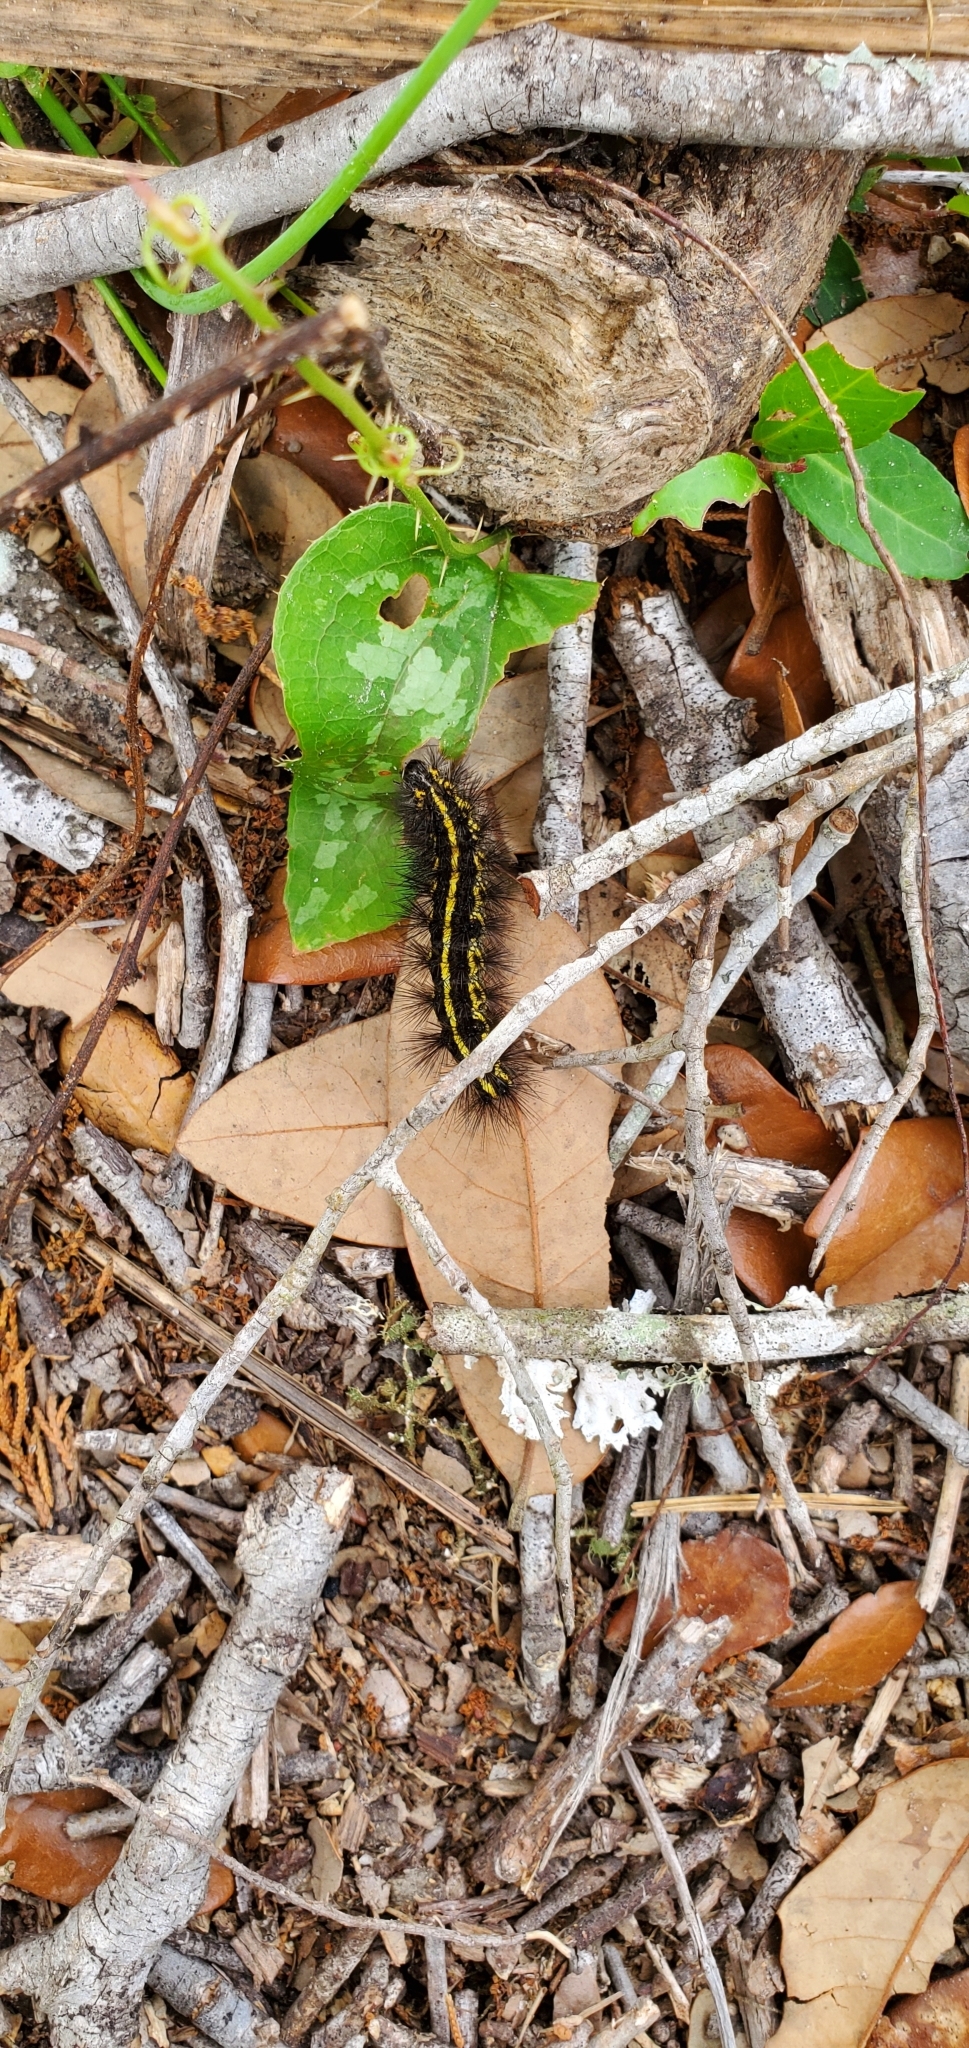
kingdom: Animalia
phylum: Arthropoda
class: Insecta
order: Lepidoptera
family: Erebidae
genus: Spilosoma
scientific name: Spilosoma dubia
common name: Dubious tiger moth
